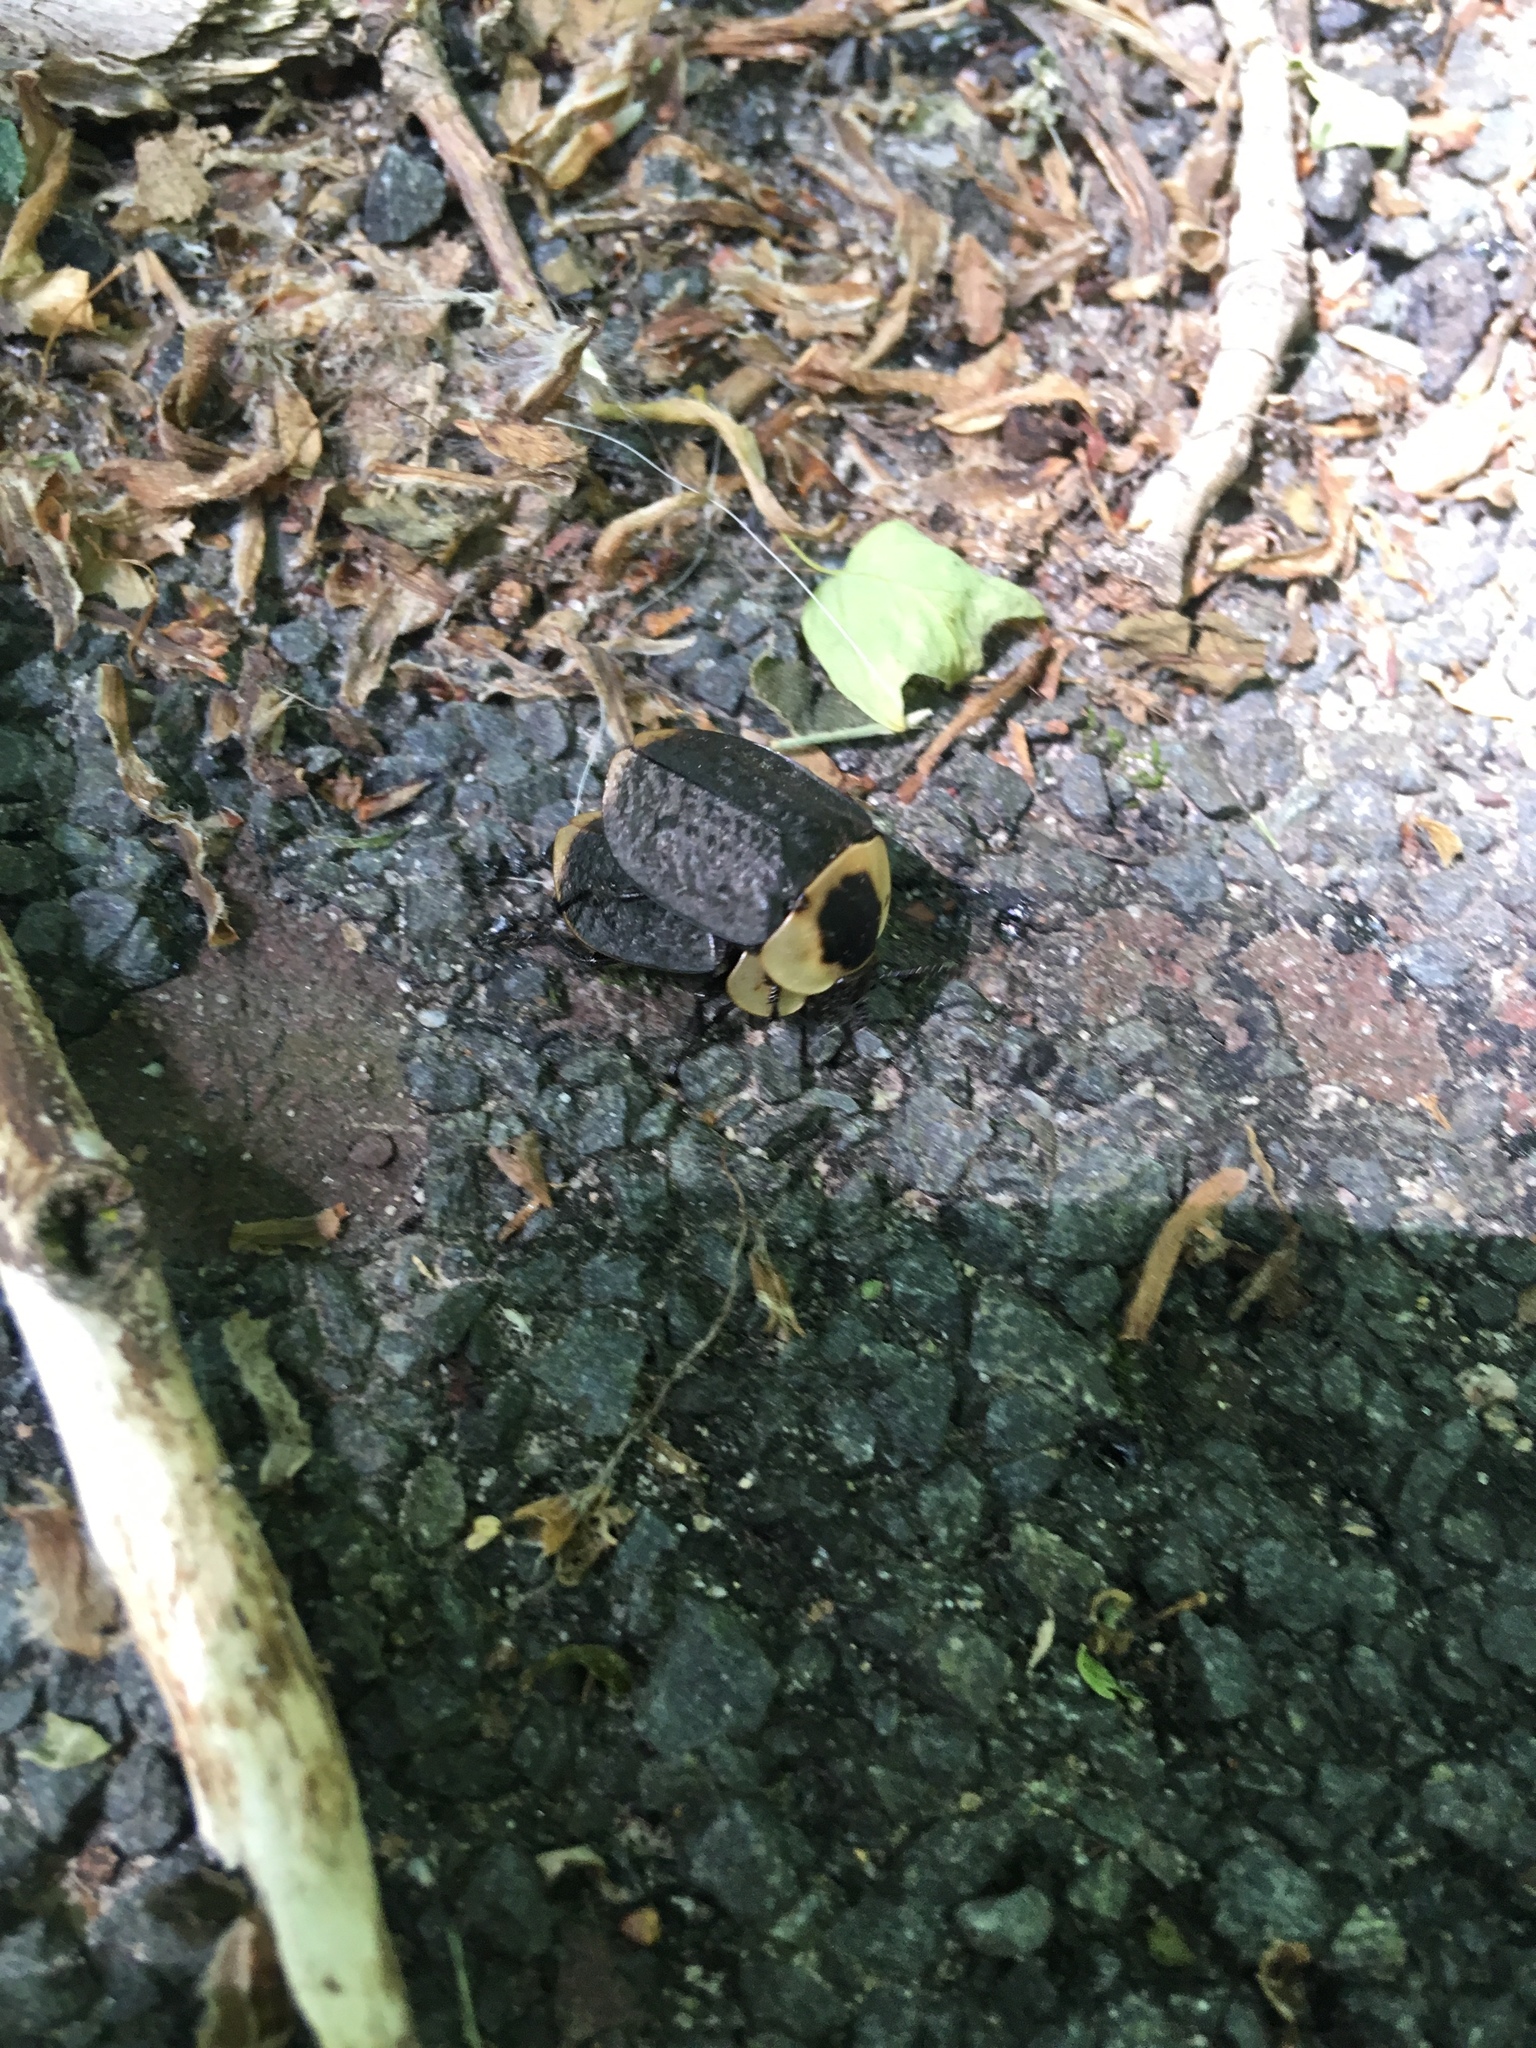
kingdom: Animalia
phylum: Arthropoda
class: Insecta
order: Coleoptera
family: Staphylinidae
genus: Necrophila
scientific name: Necrophila americana
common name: American carrion beetle
